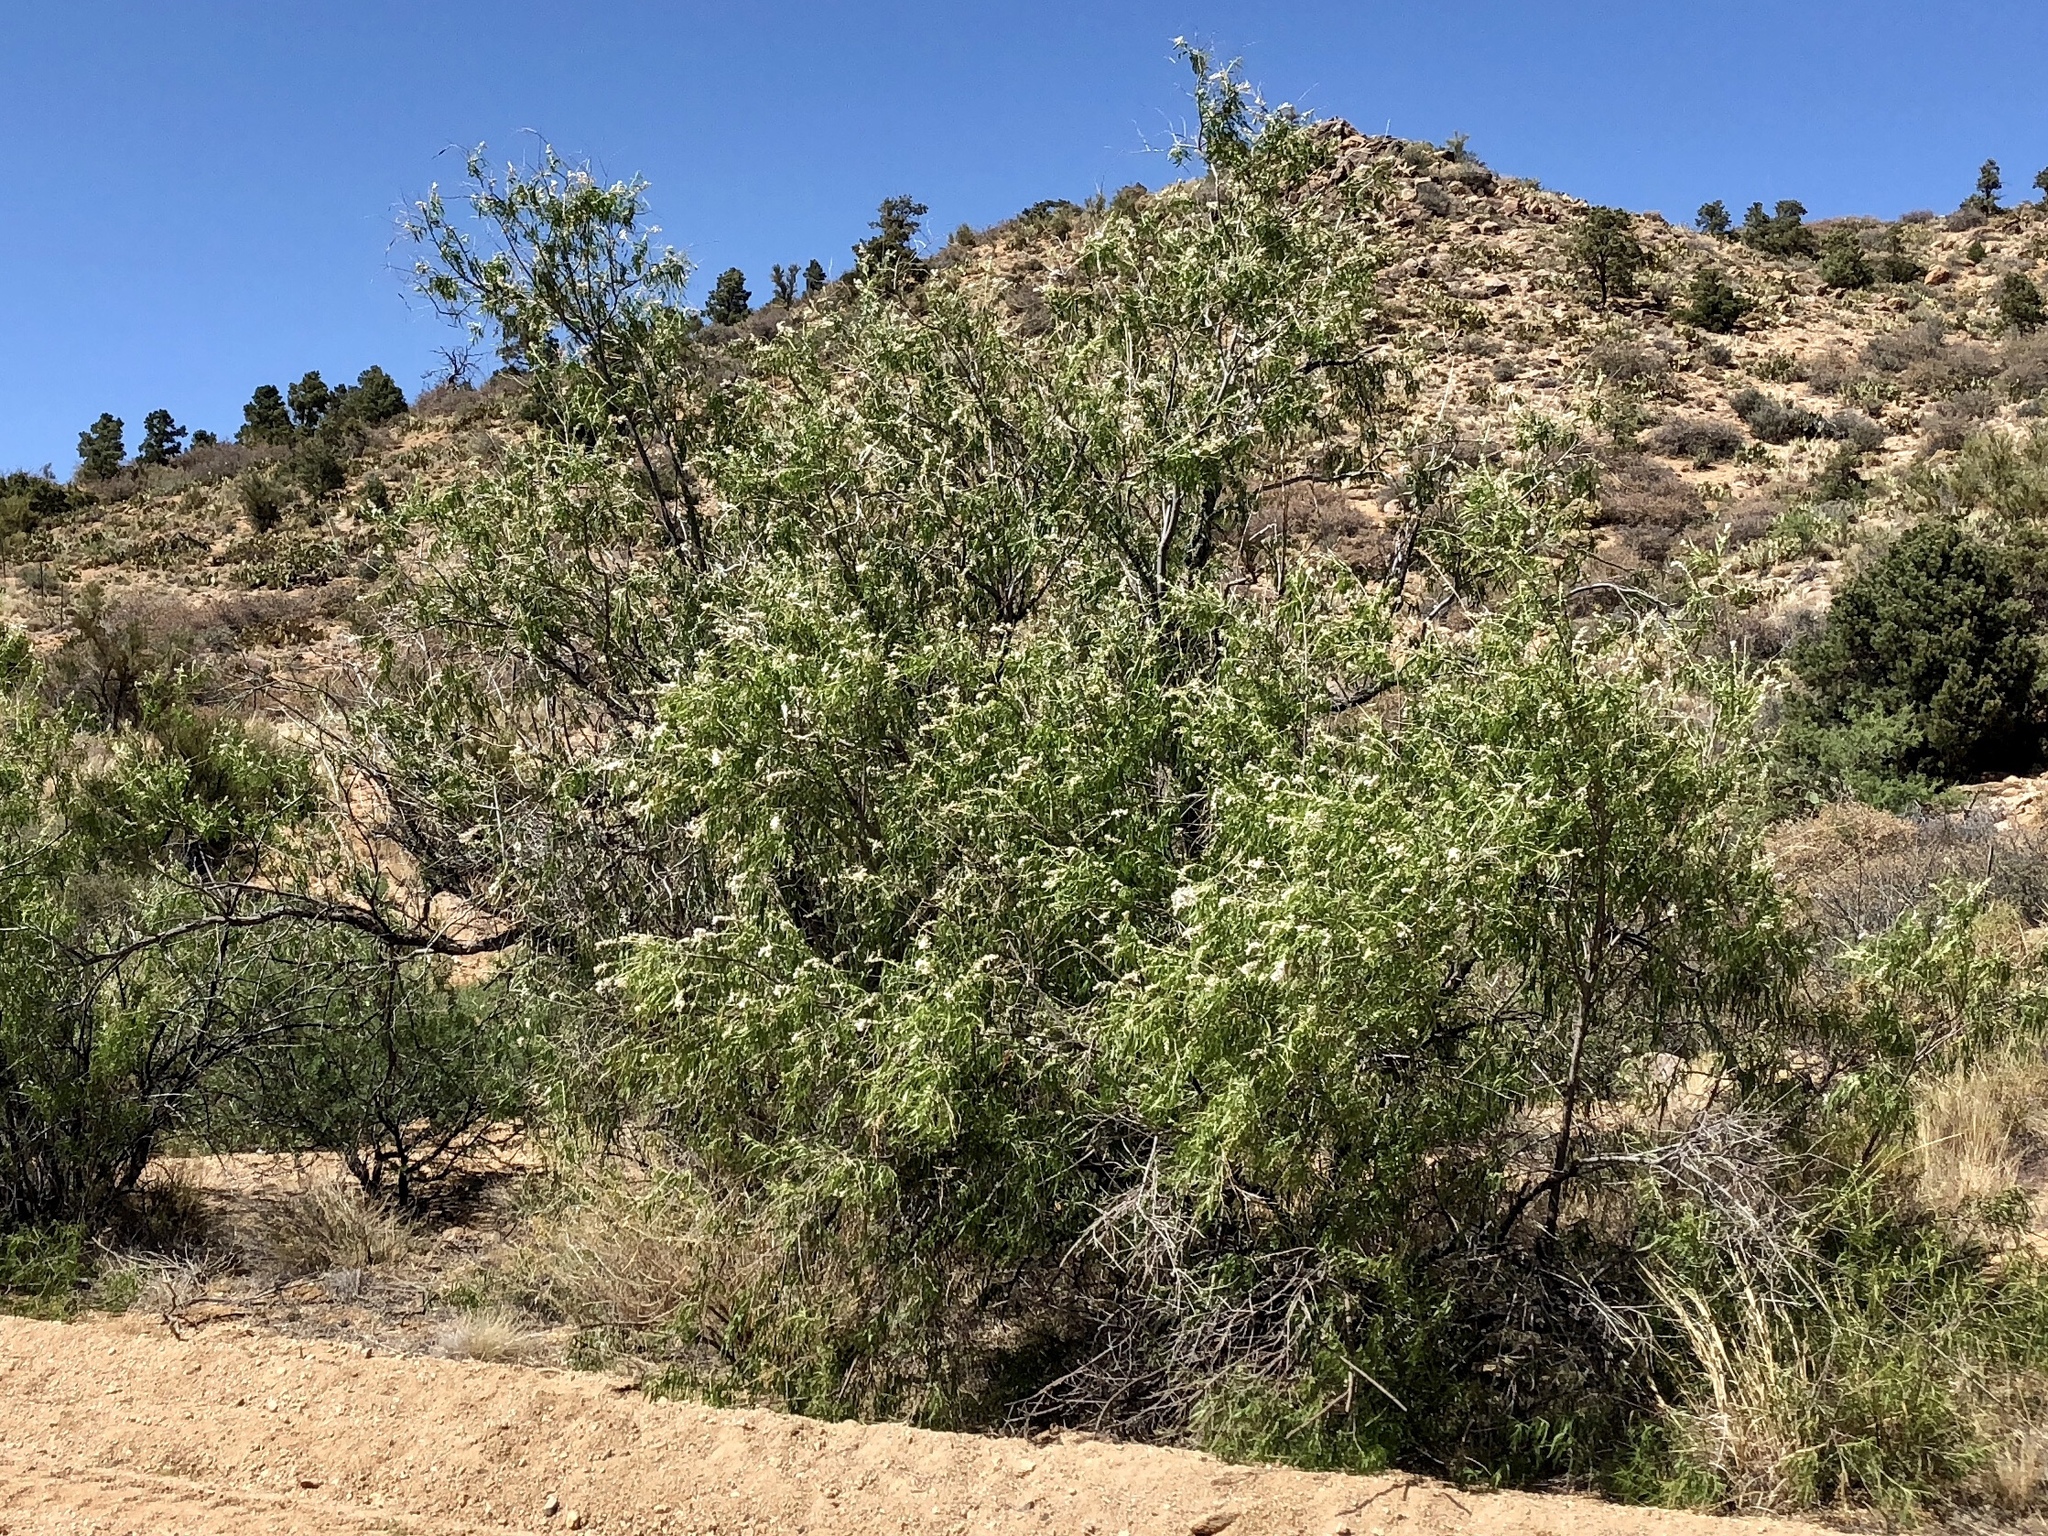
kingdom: Plantae
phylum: Tracheophyta
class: Magnoliopsida
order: Lamiales
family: Bignoniaceae
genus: Chilopsis
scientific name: Chilopsis linearis
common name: Desert-willow
